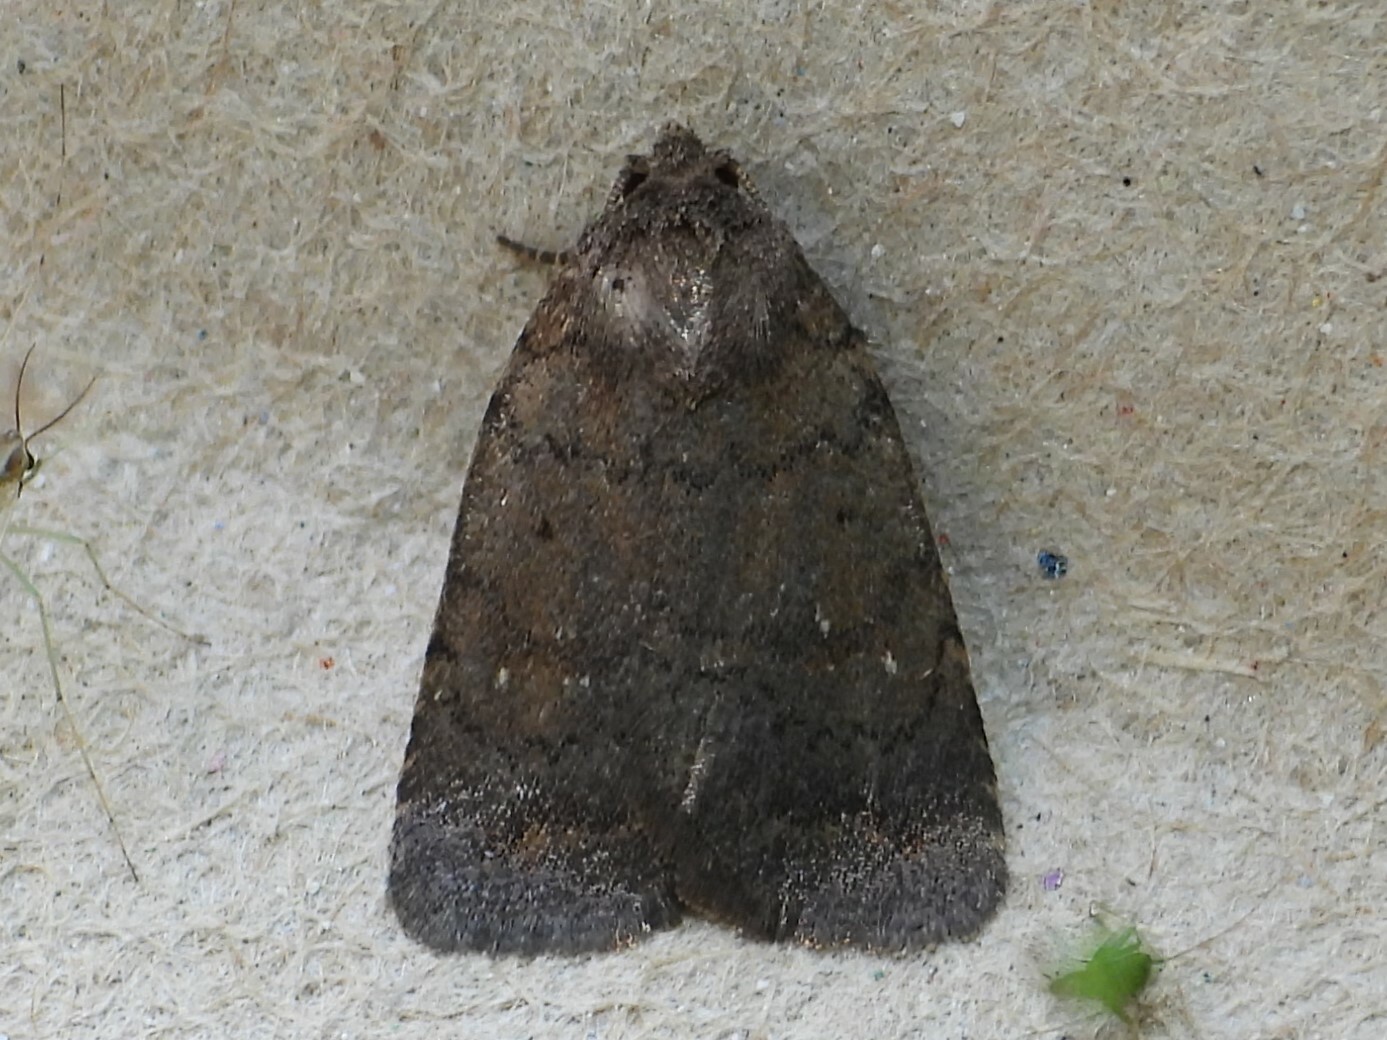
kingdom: Animalia
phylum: Arthropoda
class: Insecta
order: Lepidoptera
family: Noctuidae
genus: Athetis
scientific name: Athetis tarda
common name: Slowpoke moth
